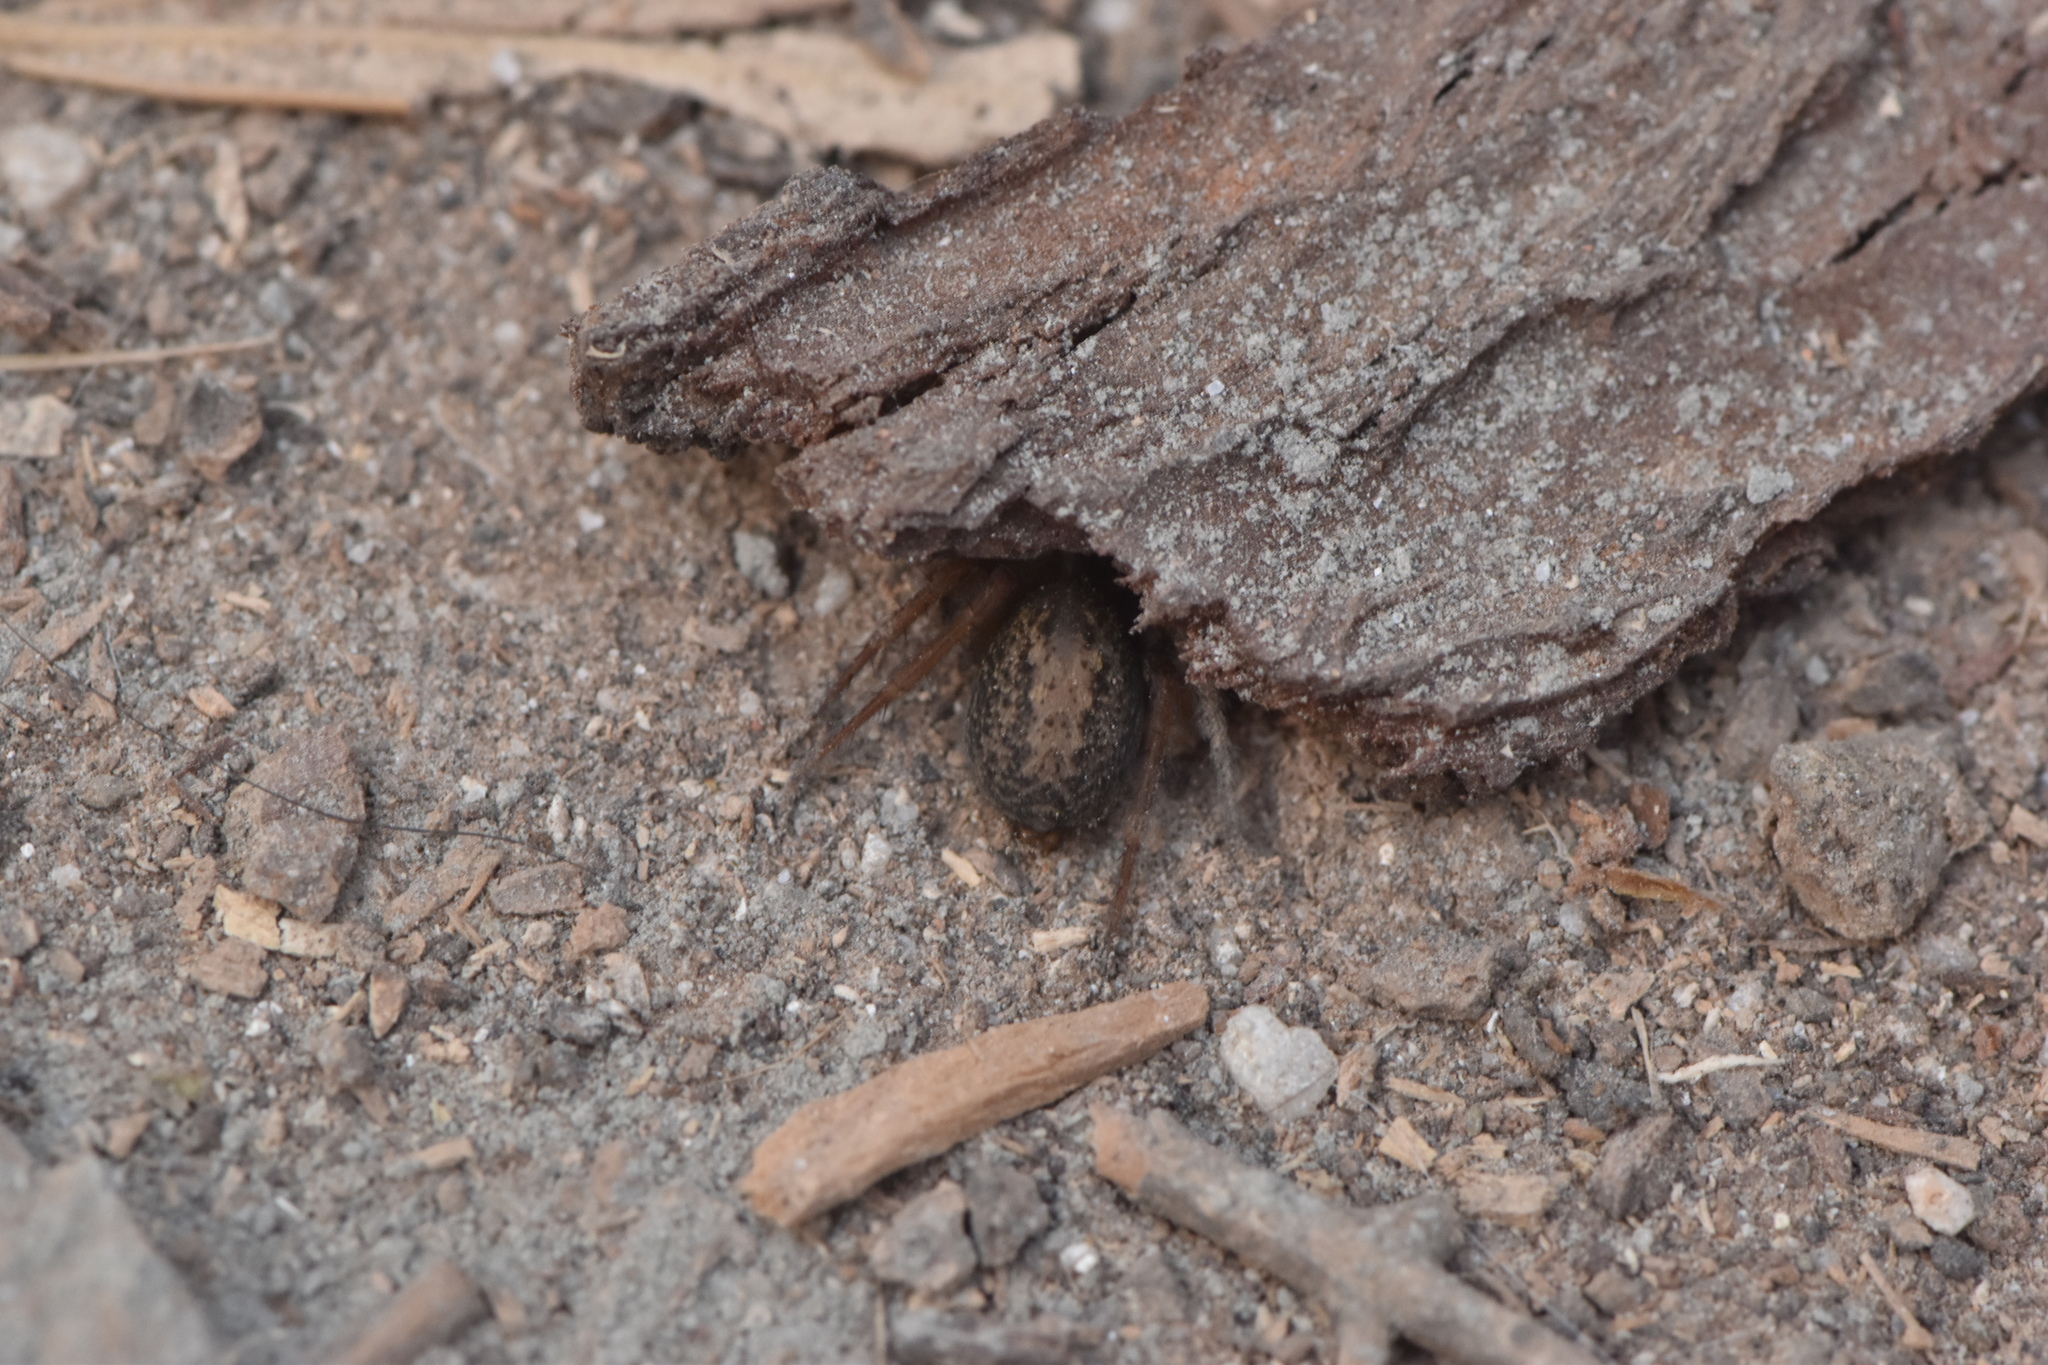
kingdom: Animalia
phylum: Arthropoda
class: Arachnida
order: Araneae
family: Agelenidae
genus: Lycosoides
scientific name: Lycosoides coarctata
